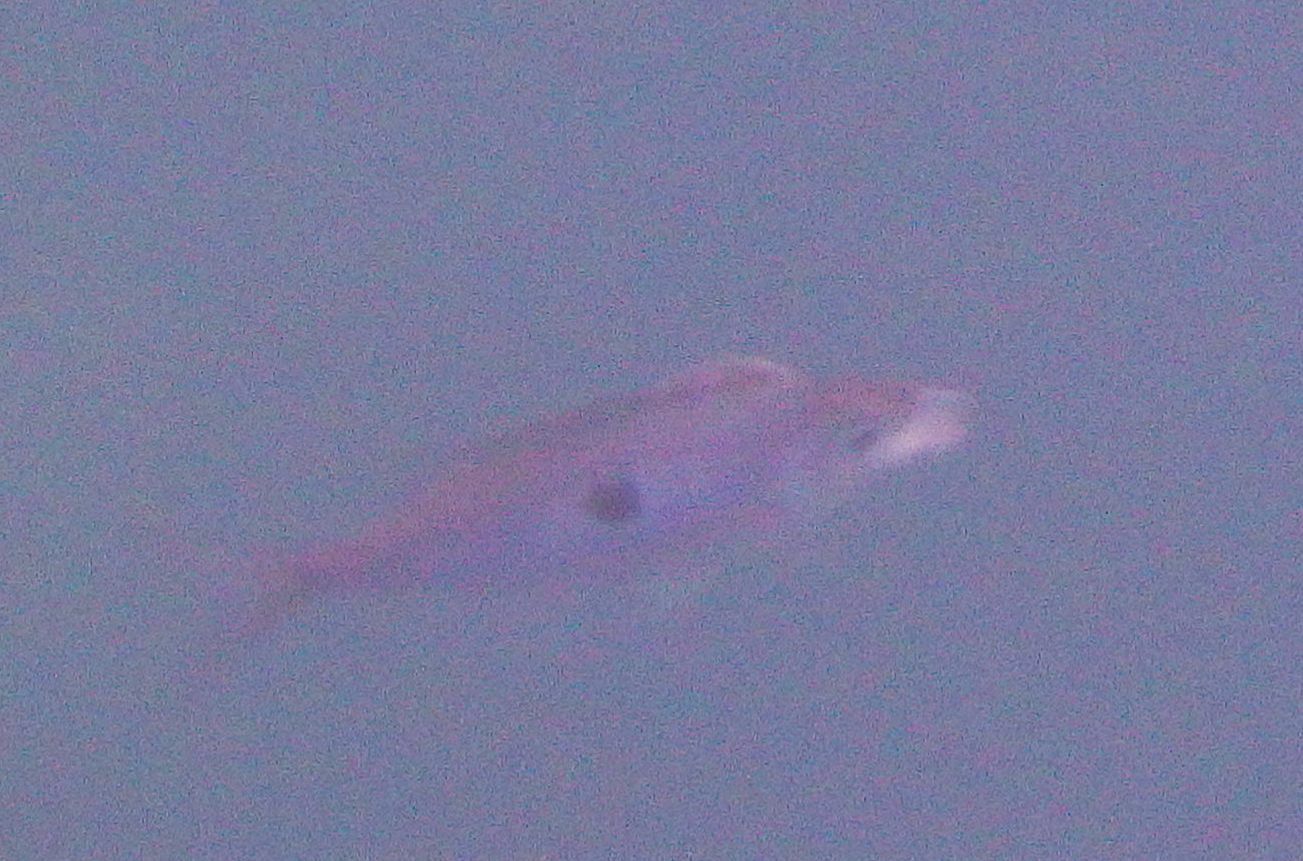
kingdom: Animalia
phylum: Chordata
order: Perciformes
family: Sparidae
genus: Spicara
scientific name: Spicara maena
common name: Blotched picarel
